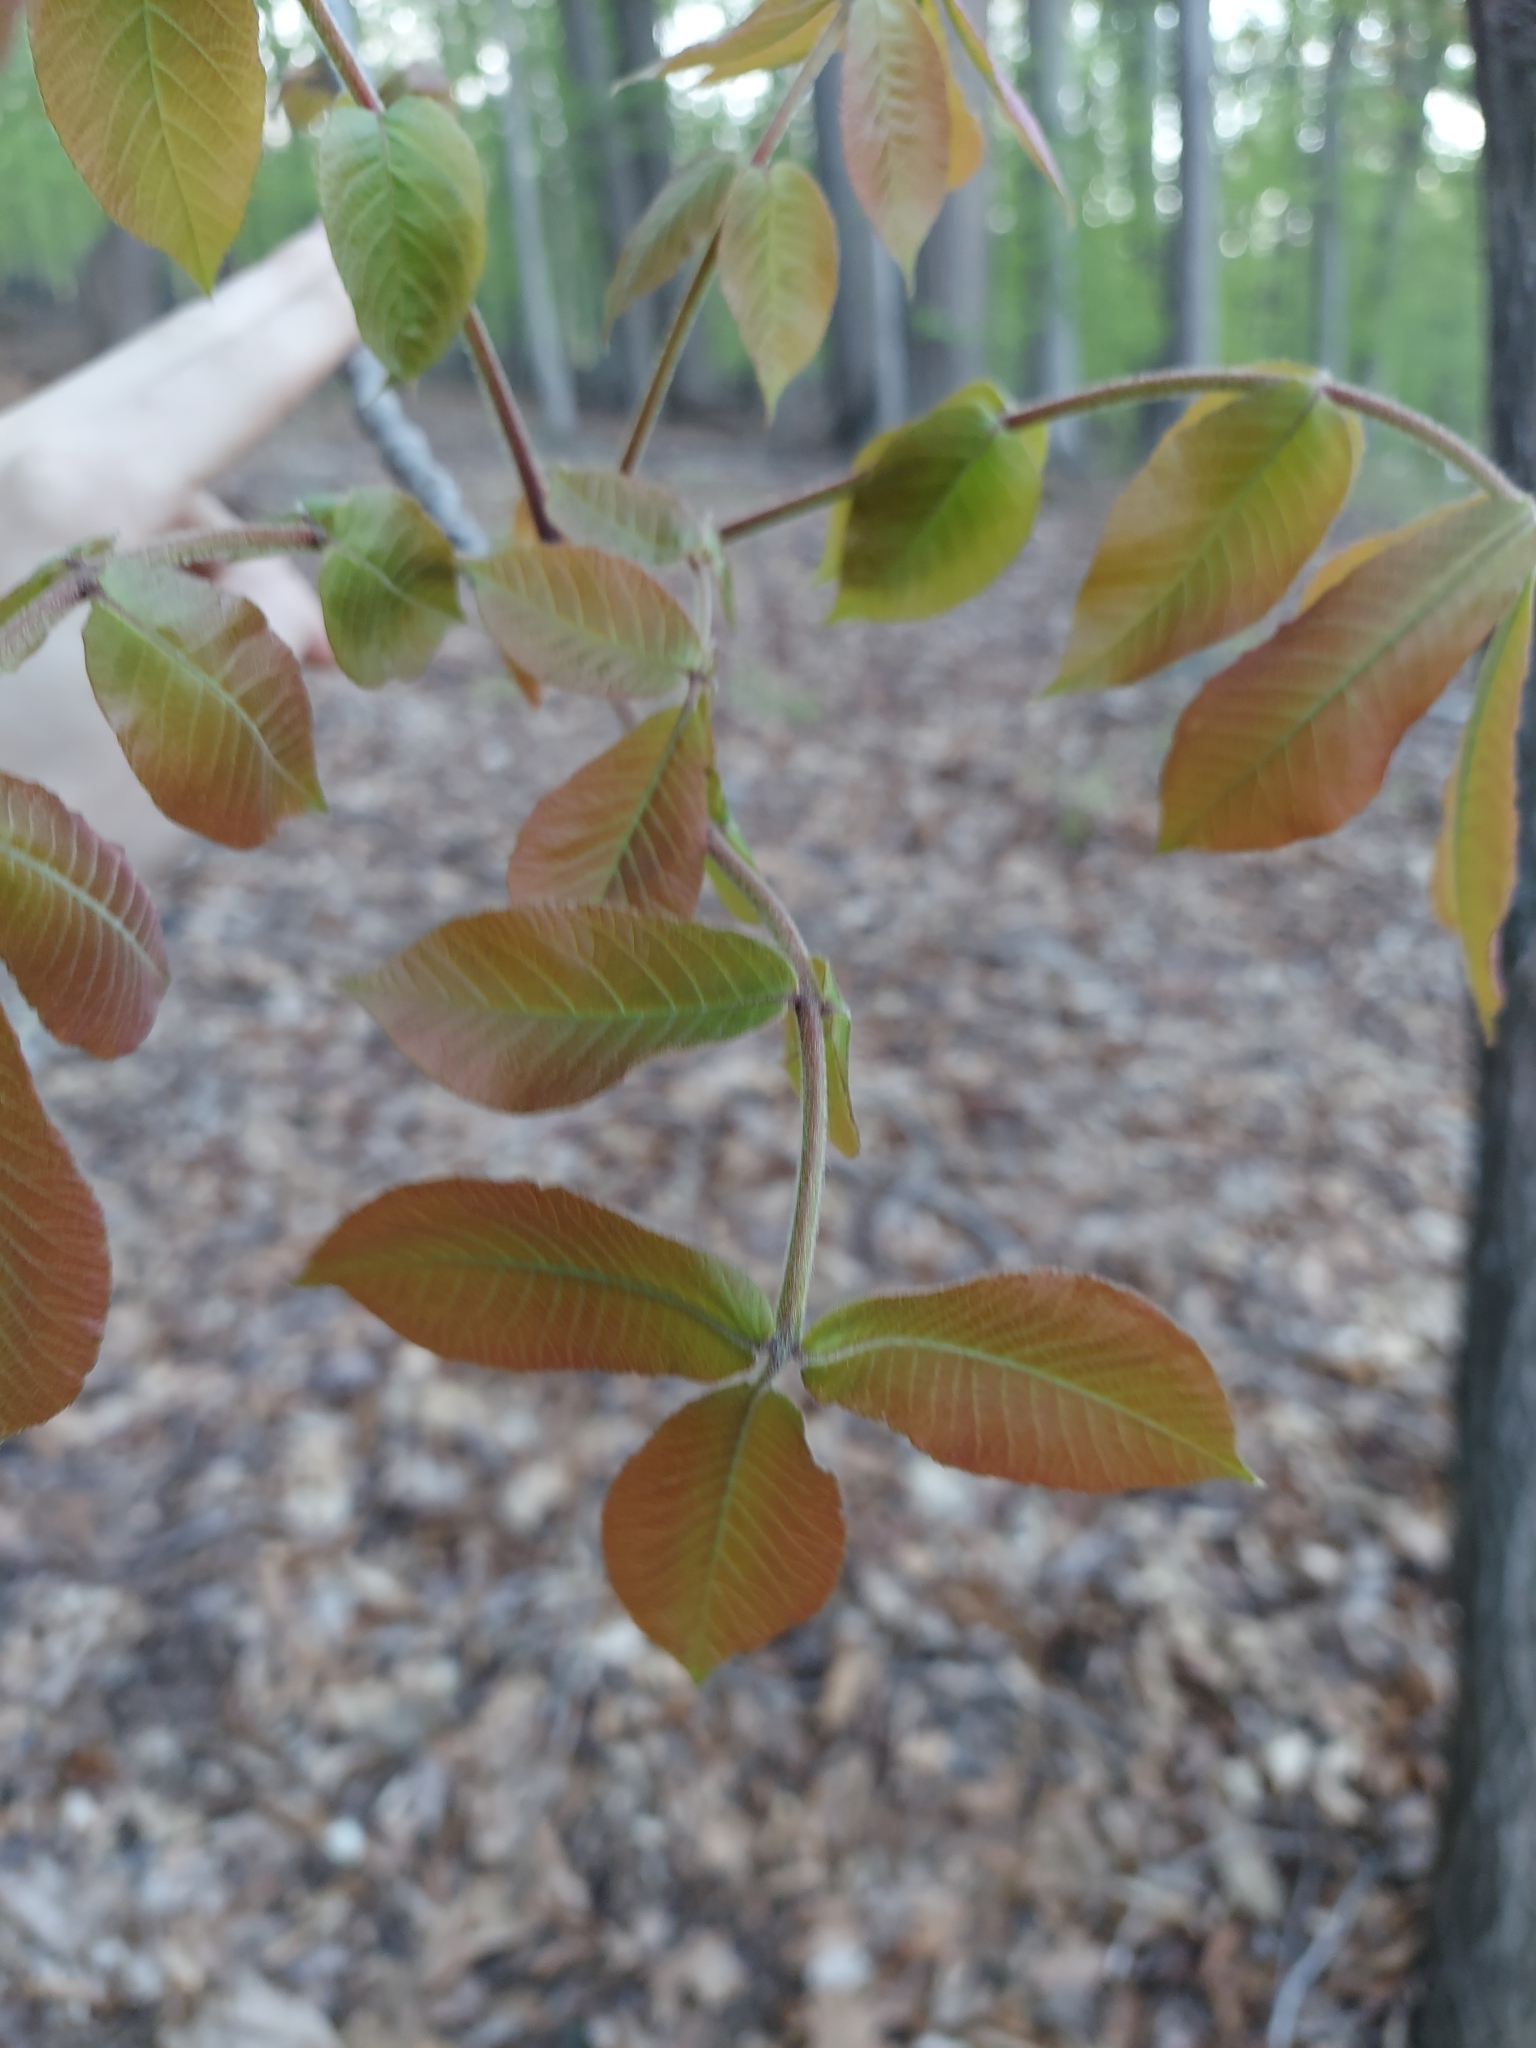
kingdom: Plantae
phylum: Tracheophyta
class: Magnoliopsida
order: Fagales
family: Juglandaceae
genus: Carya
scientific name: Carya alba
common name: Mockernut hickory
